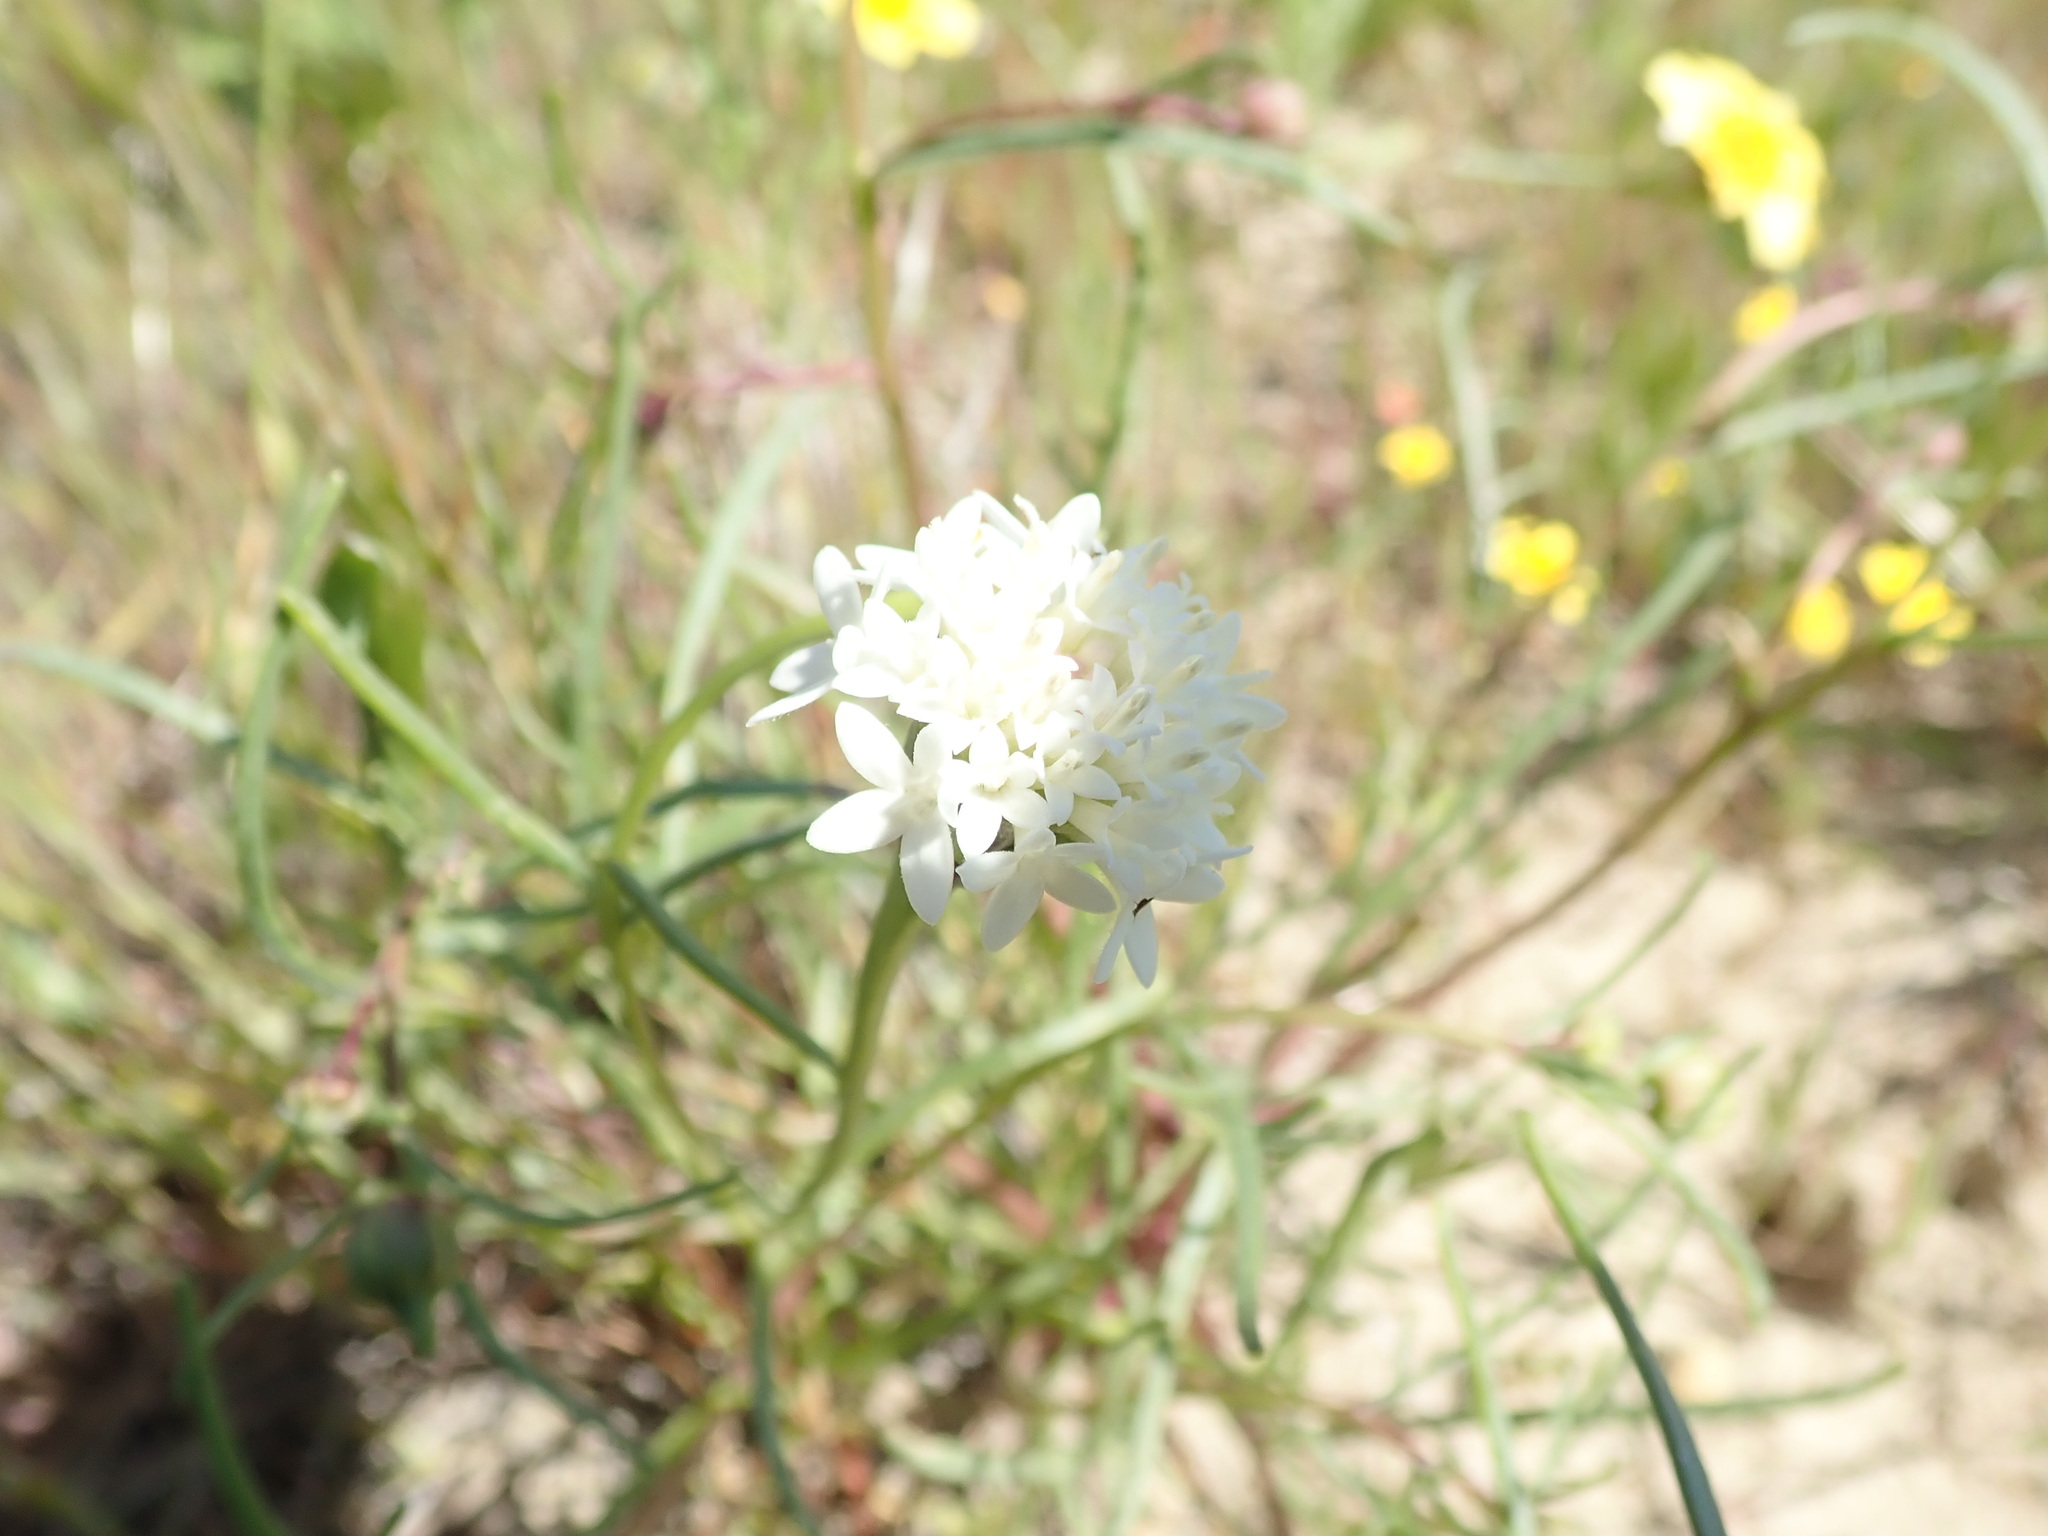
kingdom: Plantae
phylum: Tracheophyta
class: Magnoliopsida
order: Asterales
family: Asteraceae
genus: Chaenactis
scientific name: Chaenactis fremontii
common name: Fremont pincushion
